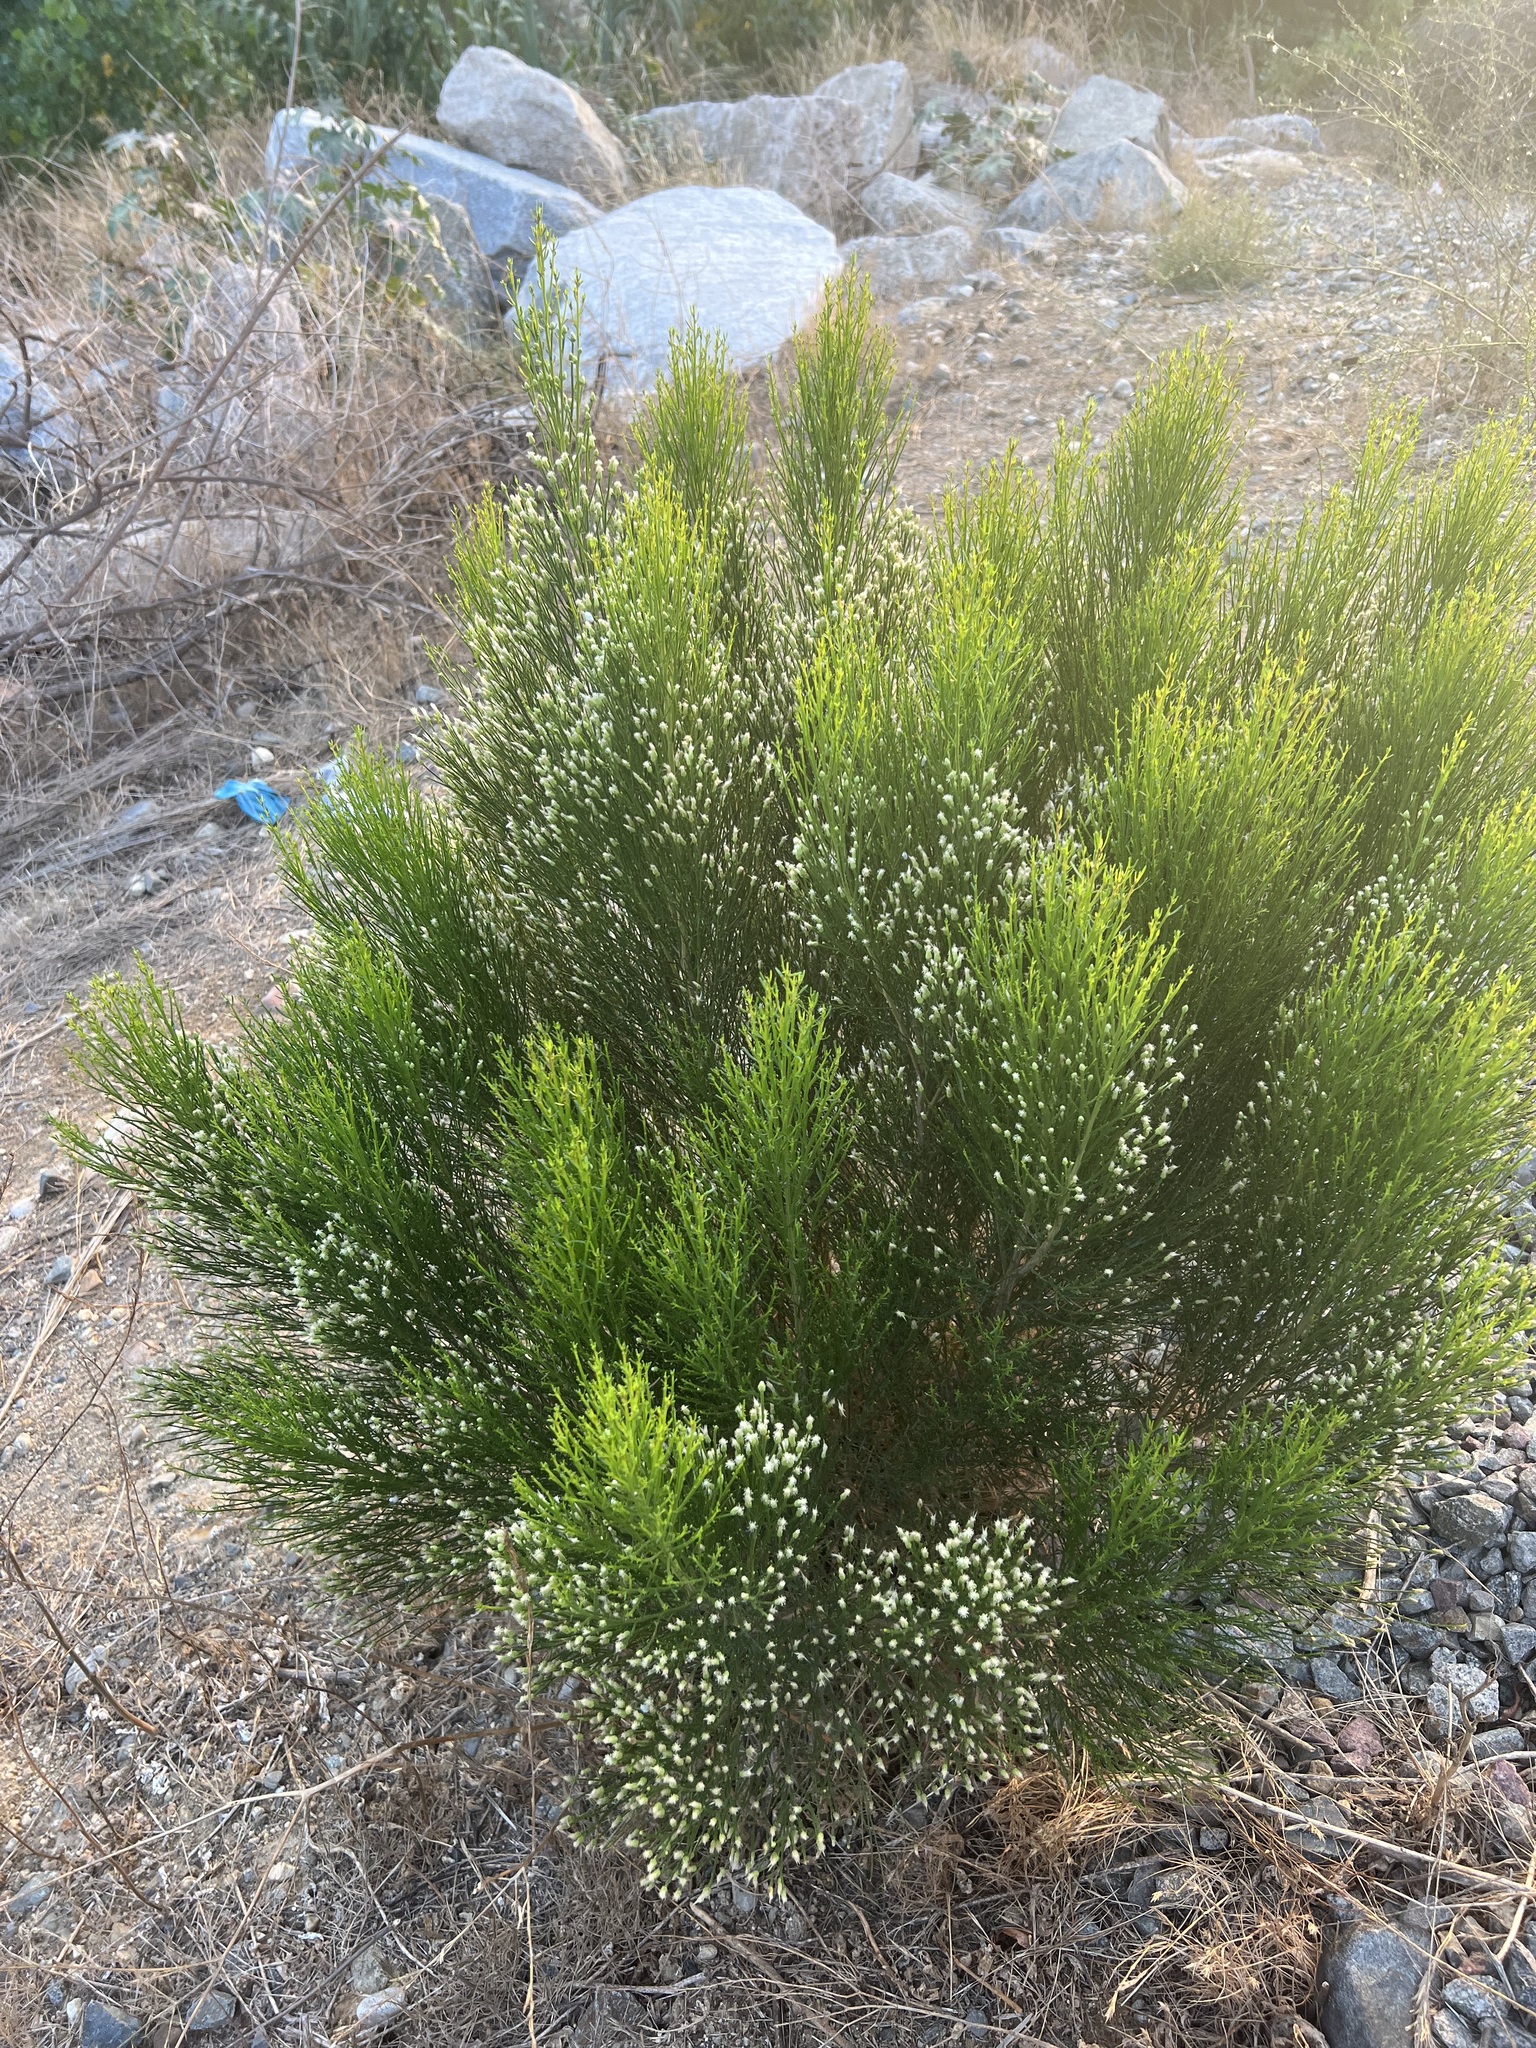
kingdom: Plantae
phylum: Tracheophyta
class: Magnoliopsida
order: Asterales
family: Asteraceae
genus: Baccharis
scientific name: Baccharis sarothroides
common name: Desert-broom
